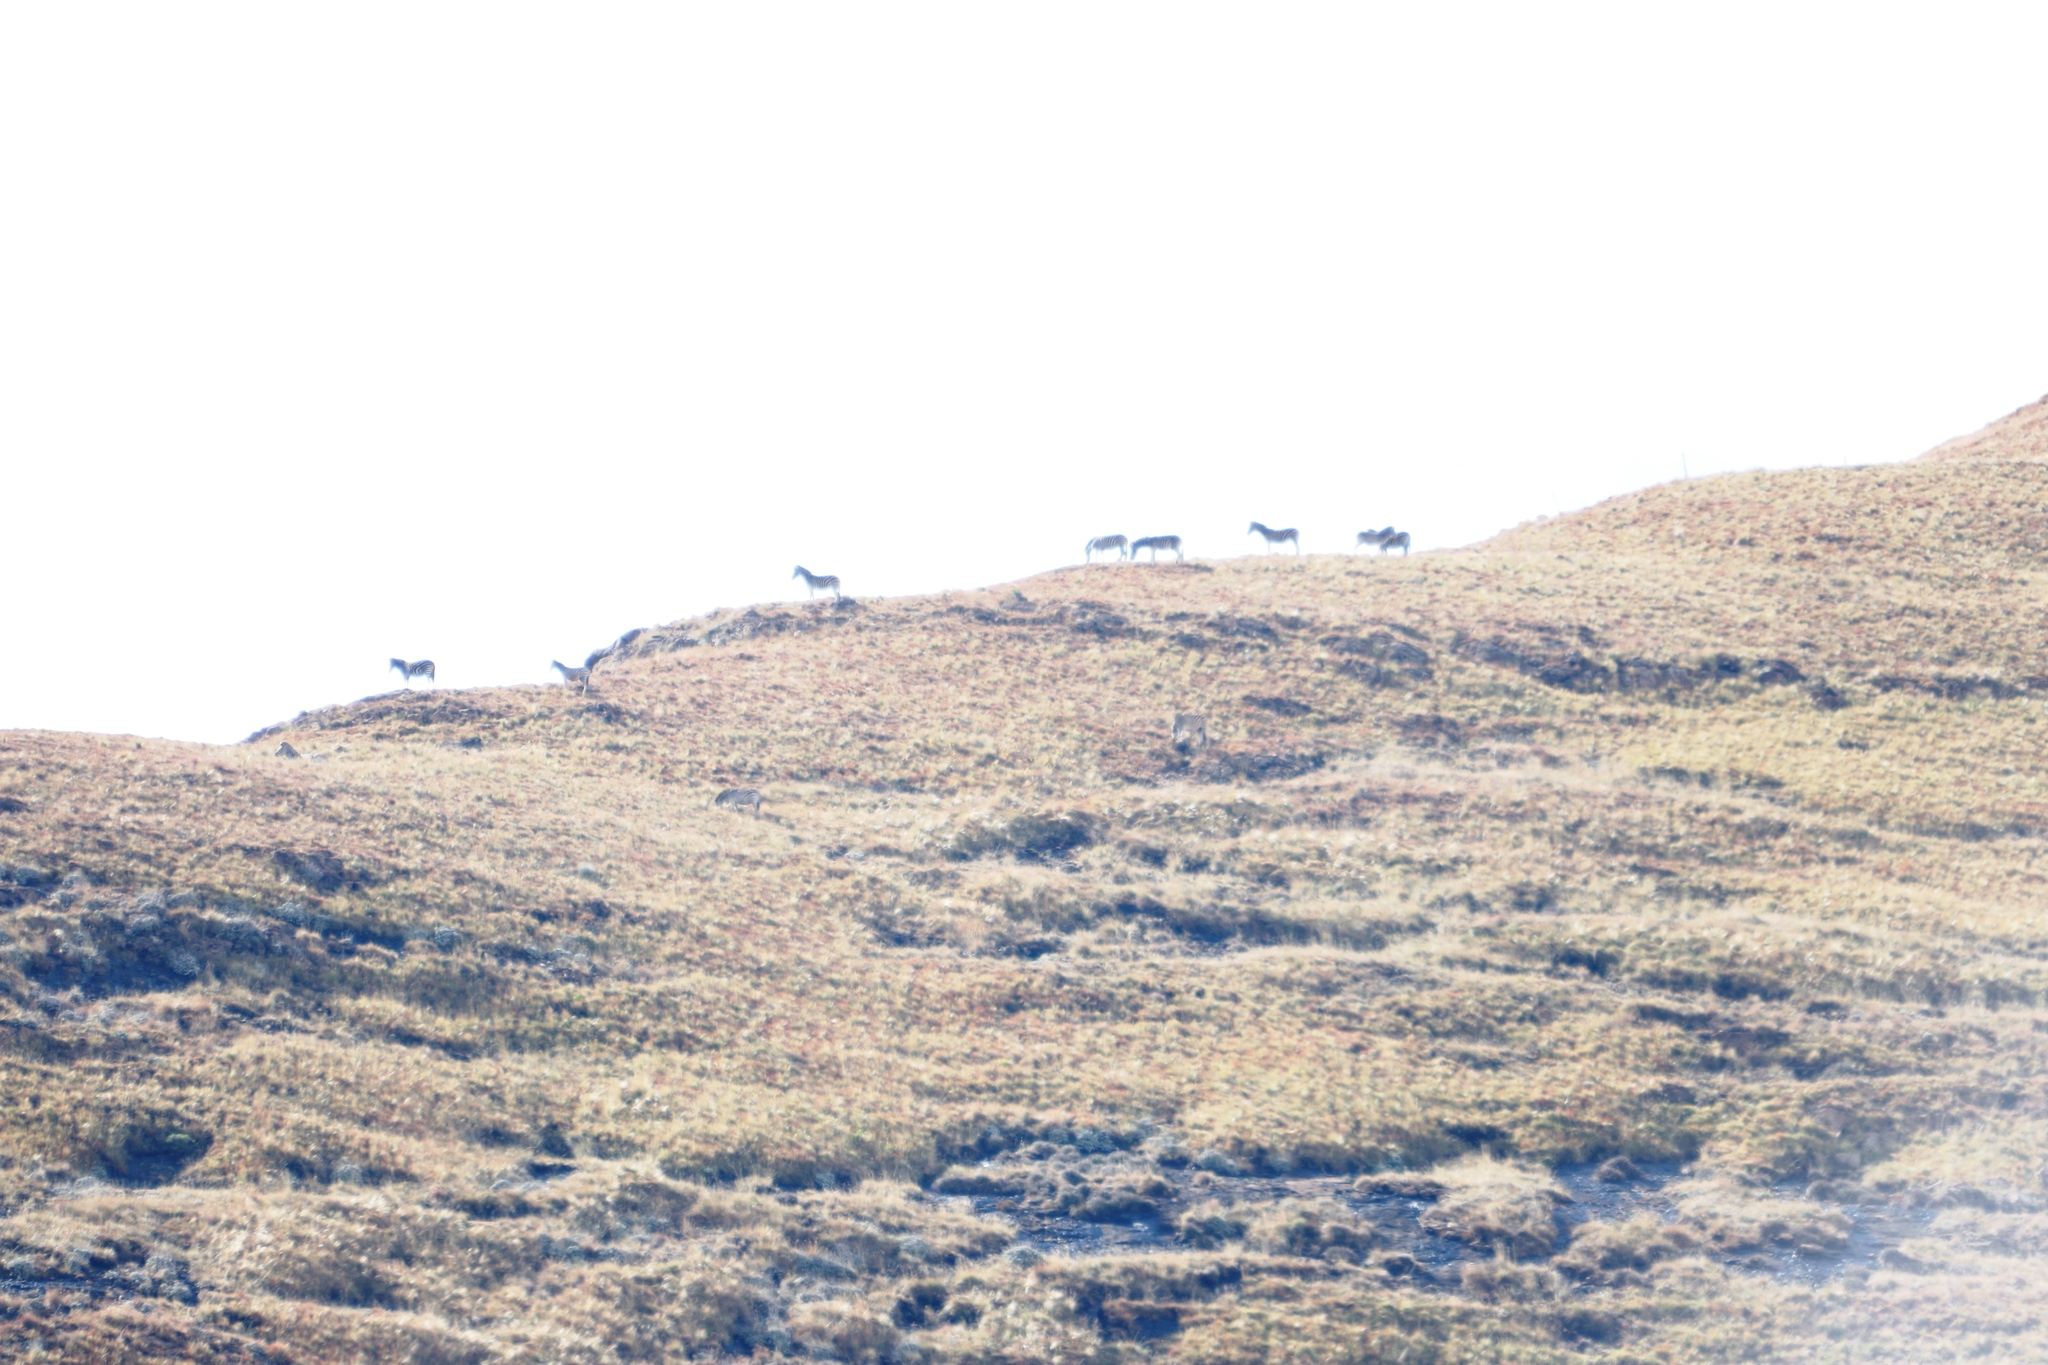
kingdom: Animalia
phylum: Chordata
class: Mammalia
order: Perissodactyla
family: Equidae
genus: Equus
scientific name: Equus quagga
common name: Plains zebra
